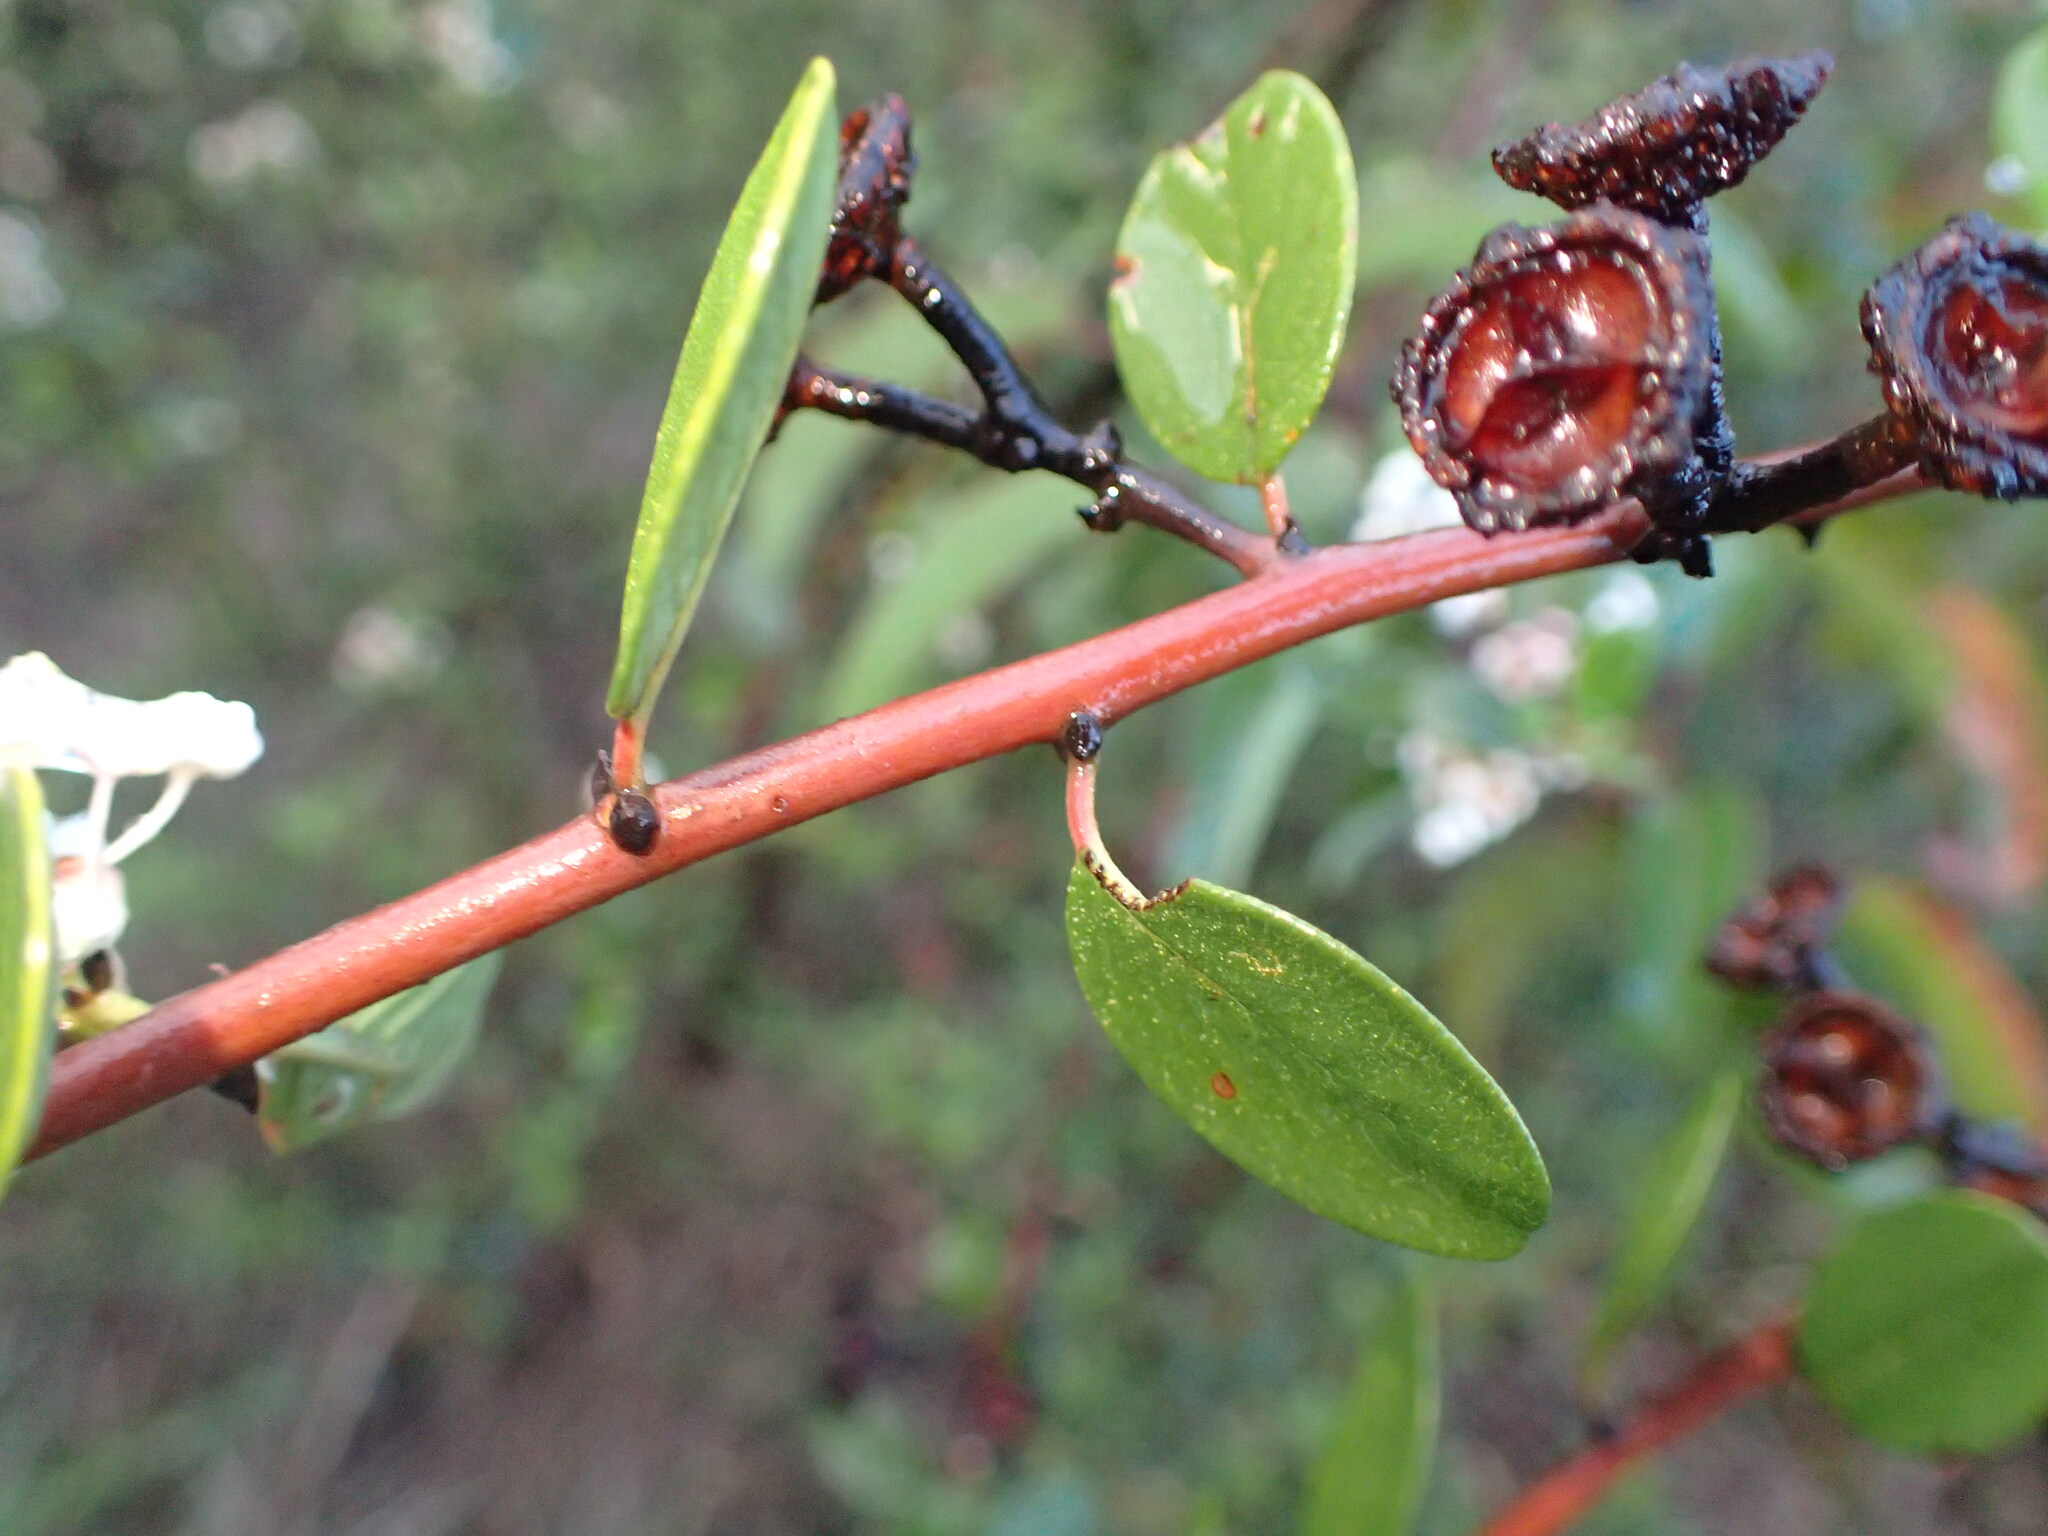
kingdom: Plantae
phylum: Tracheophyta
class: Magnoliopsida
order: Rosales
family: Rhamnaceae
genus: Ceanothus
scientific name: Ceanothus megacarpus
